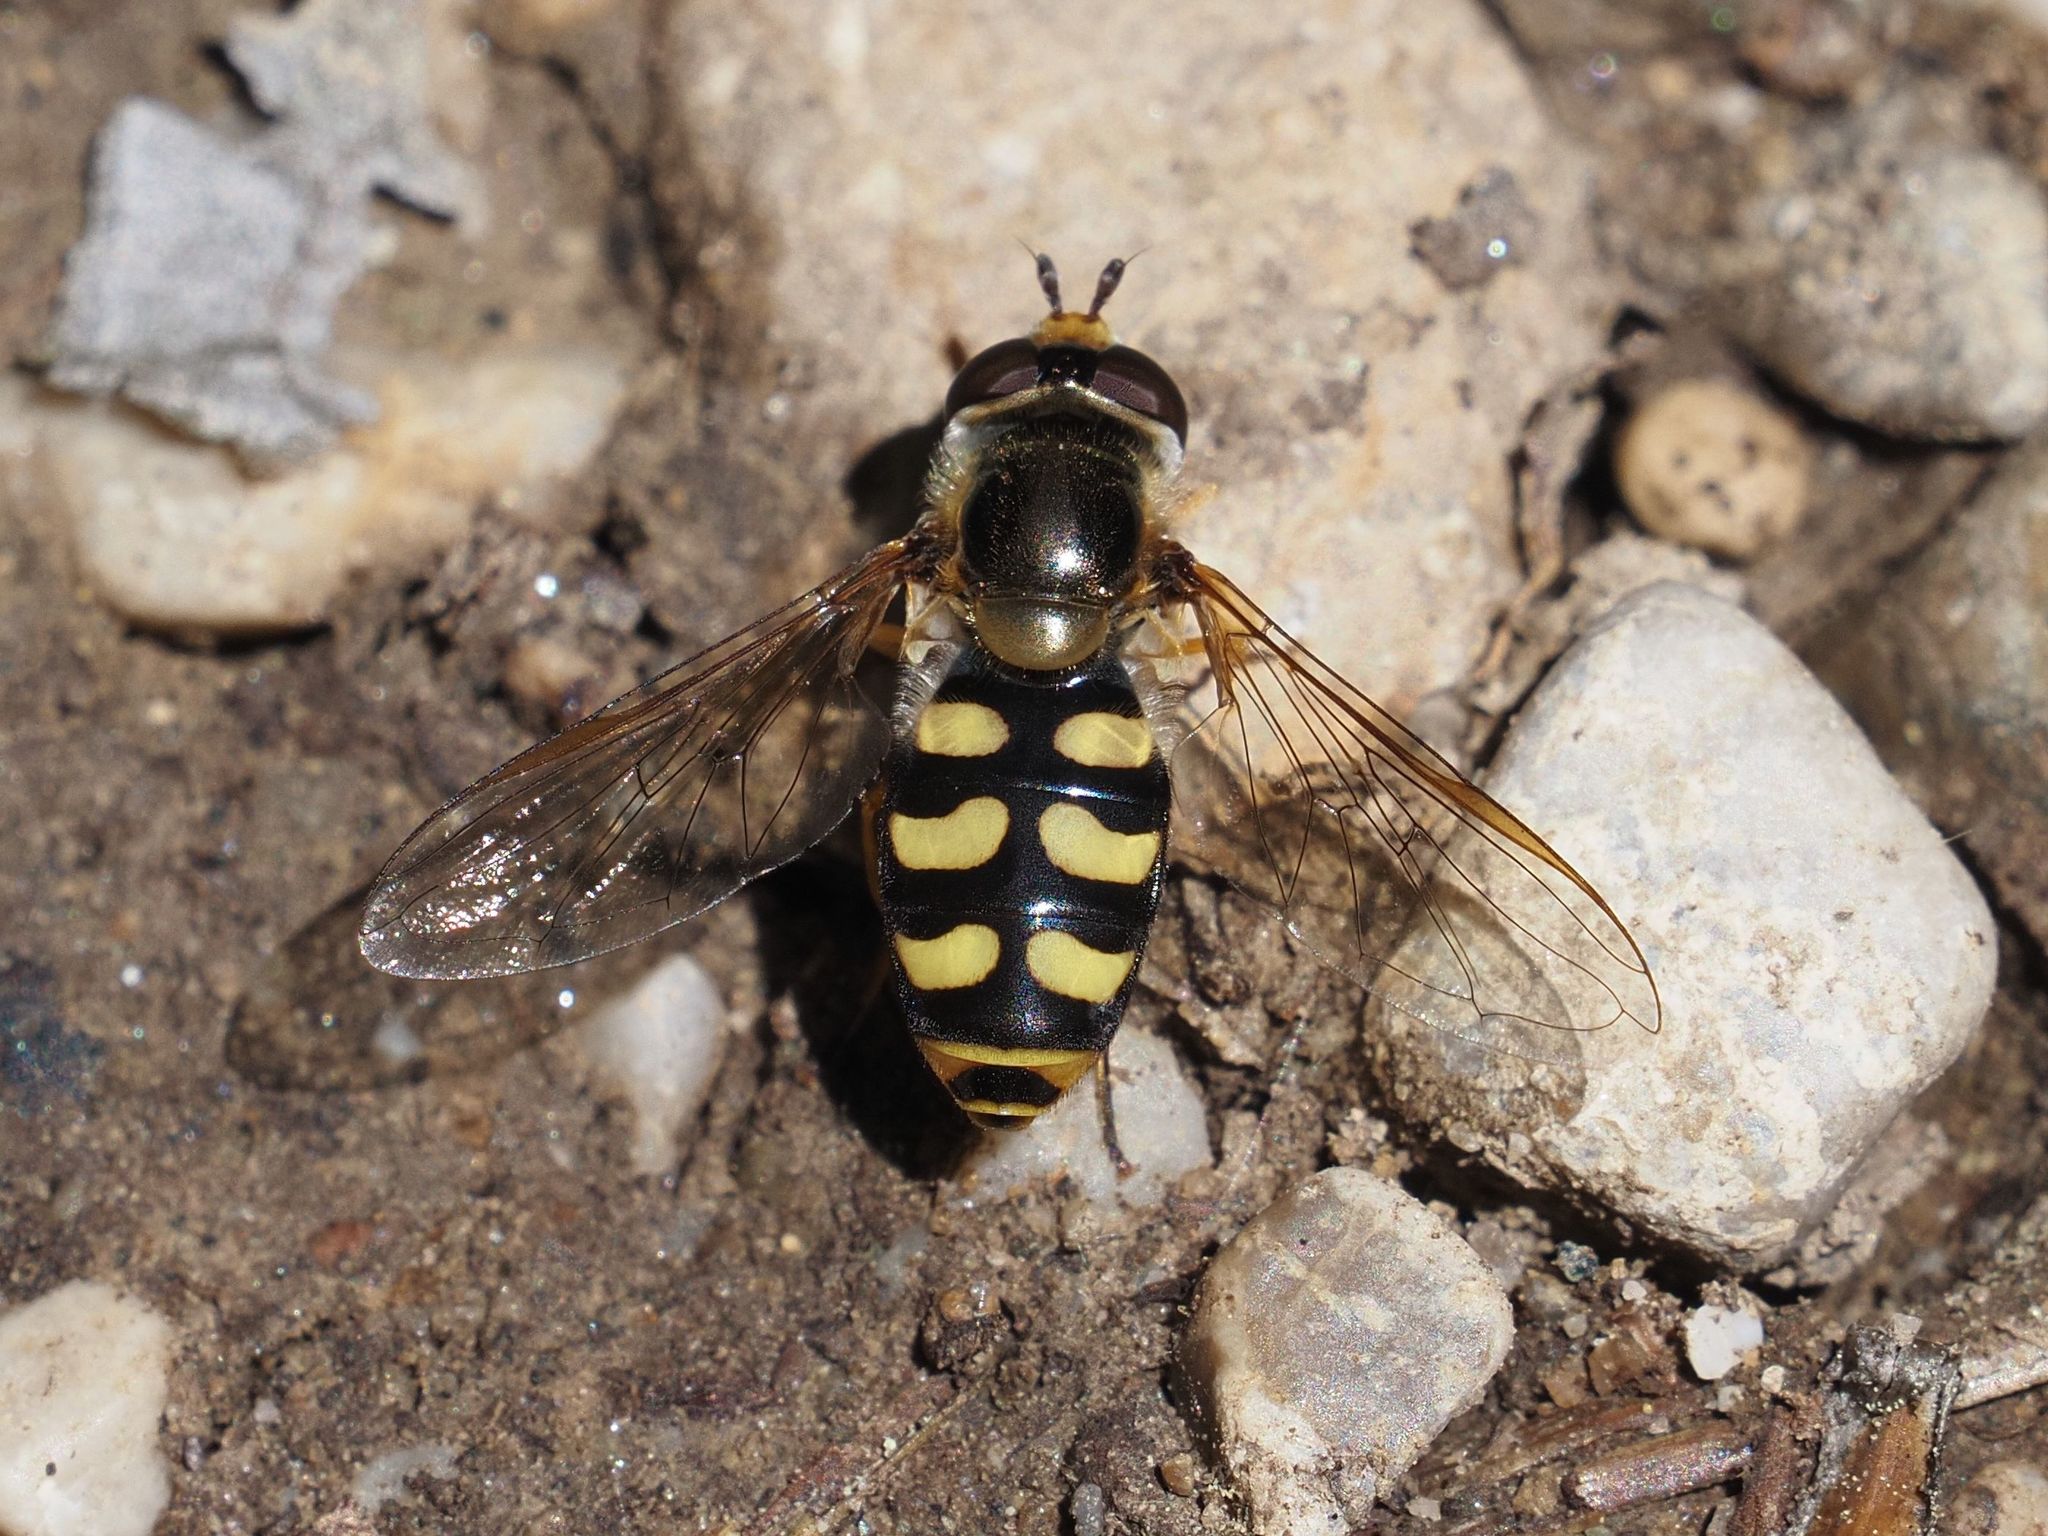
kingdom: Animalia
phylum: Arthropoda
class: Insecta
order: Diptera
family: Syrphidae
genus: Eupeodes
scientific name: Eupeodes luniger
